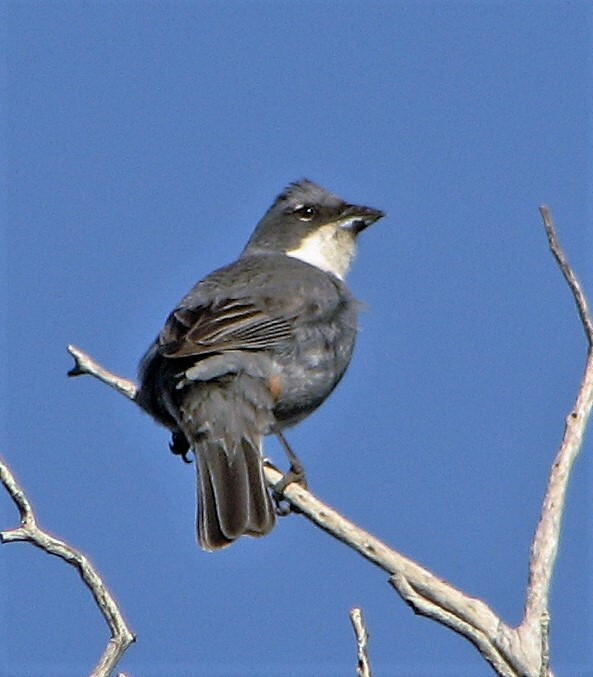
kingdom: Animalia
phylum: Chordata
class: Aves
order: Passeriformes
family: Thraupidae
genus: Diuca
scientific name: Diuca diuca
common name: Common diuca finch
